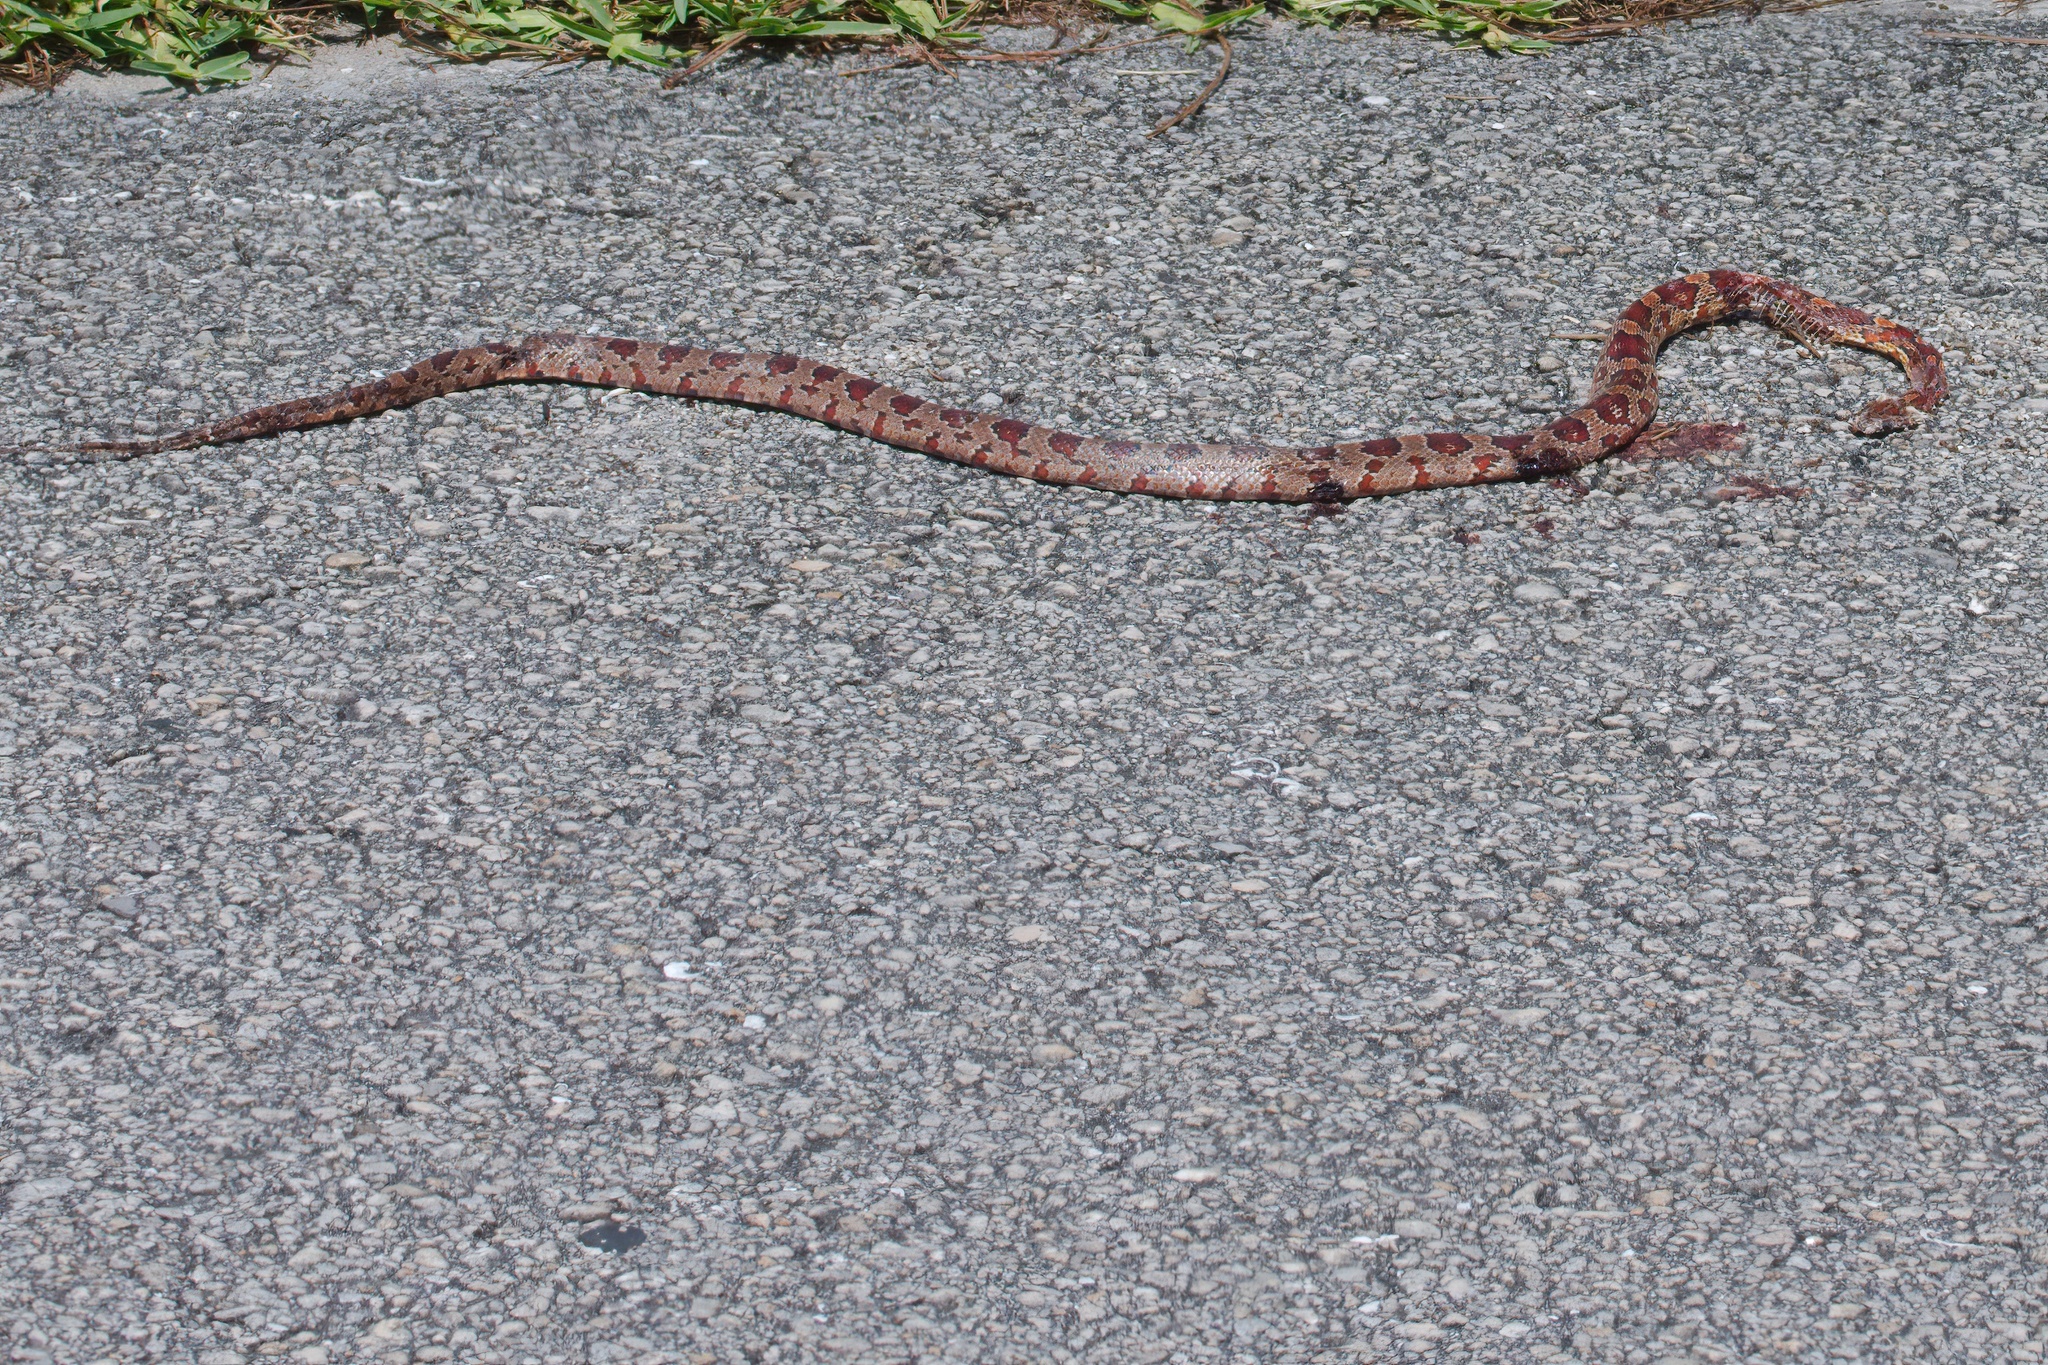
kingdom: Animalia
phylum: Chordata
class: Squamata
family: Colubridae
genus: Pantherophis
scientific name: Pantherophis guttatus
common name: Red cornsnake
